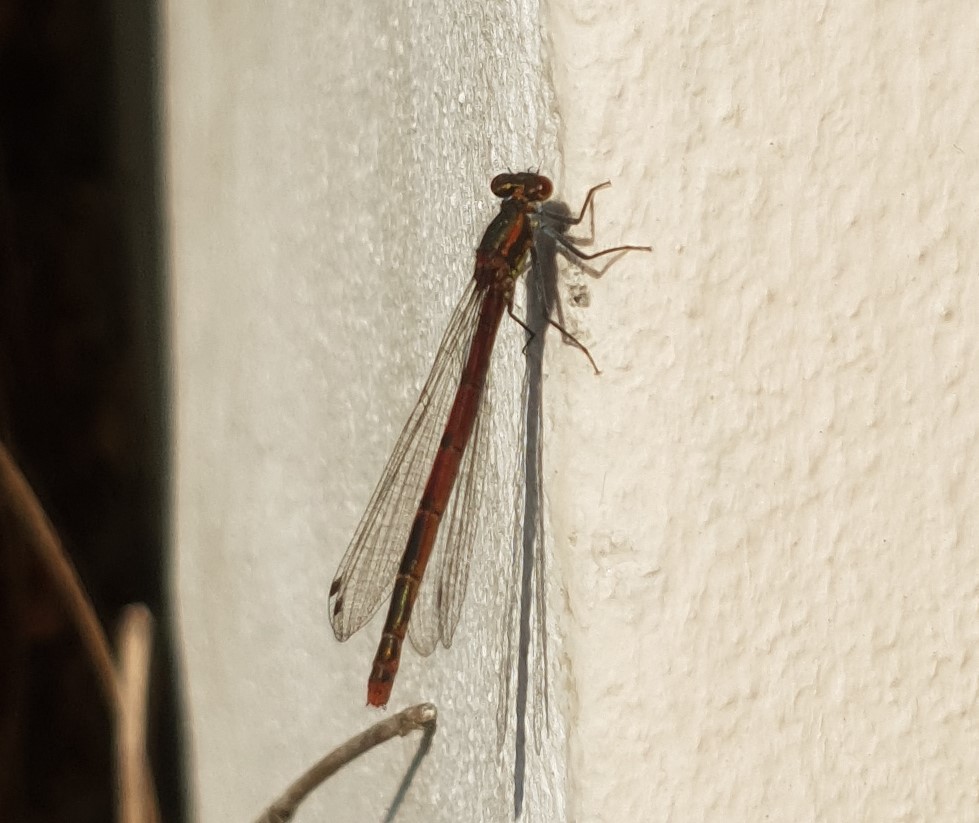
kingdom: Animalia
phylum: Arthropoda
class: Insecta
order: Odonata
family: Coenagrionidae
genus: Pyrrhosoma
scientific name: Pyrrhosoma nymphula
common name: Large red damsel
